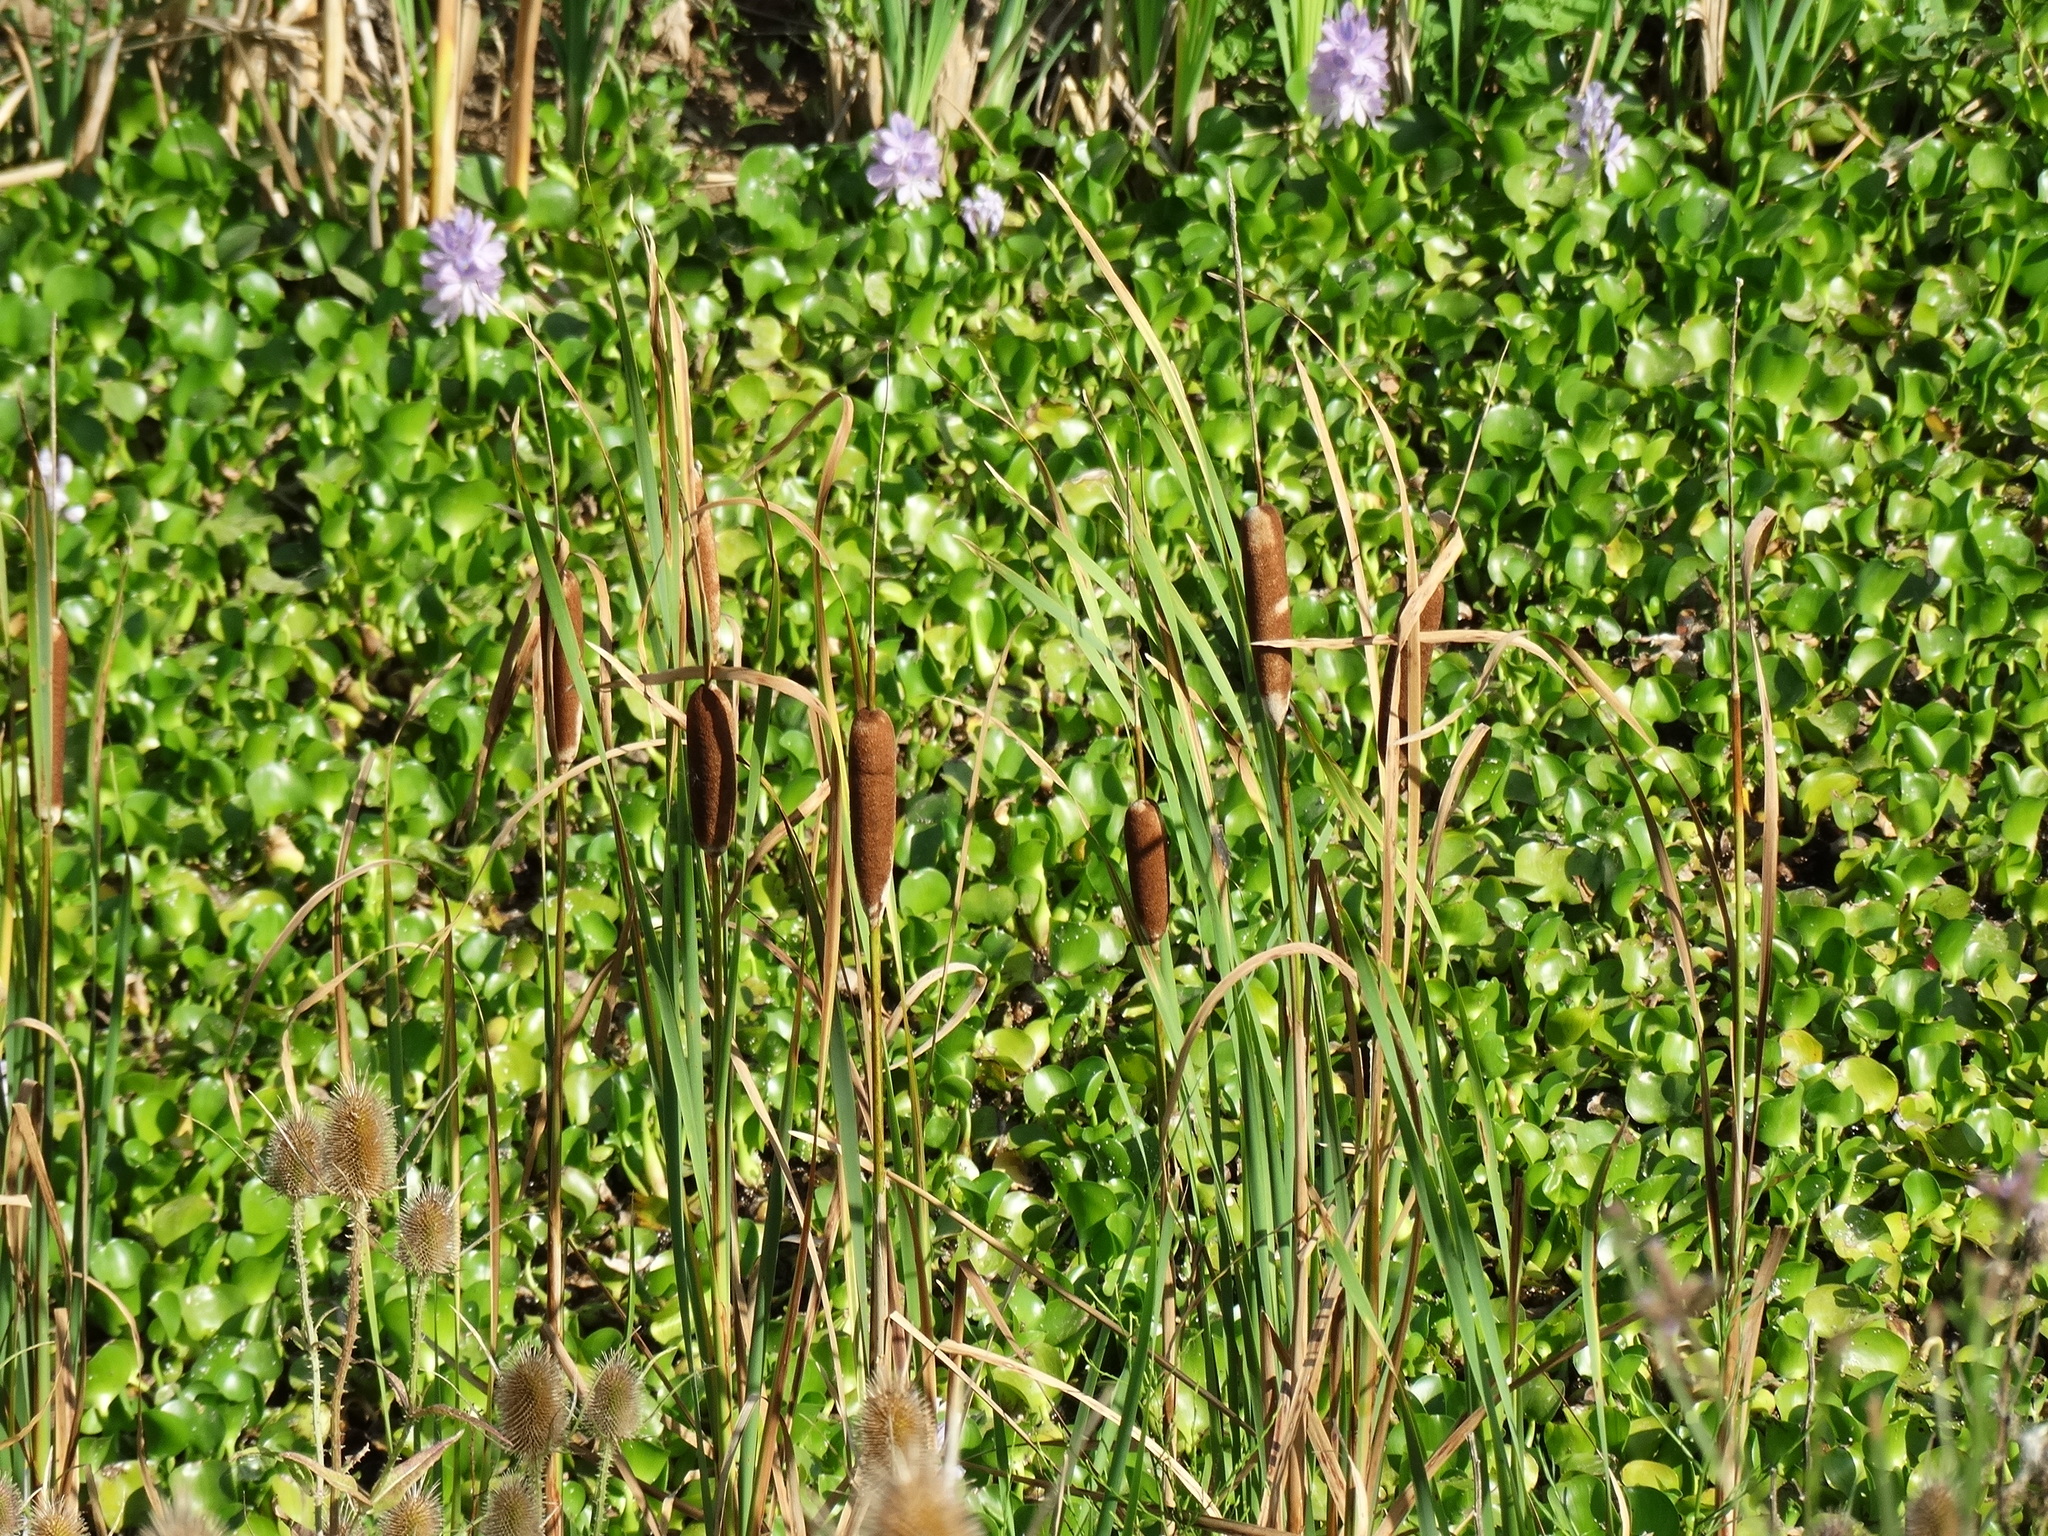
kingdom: Plantae
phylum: Tracheophyta
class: Liliopsida
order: Poales
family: Typhaceae
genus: Typha
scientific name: Typha latifolia
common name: Broadleaf cattail
